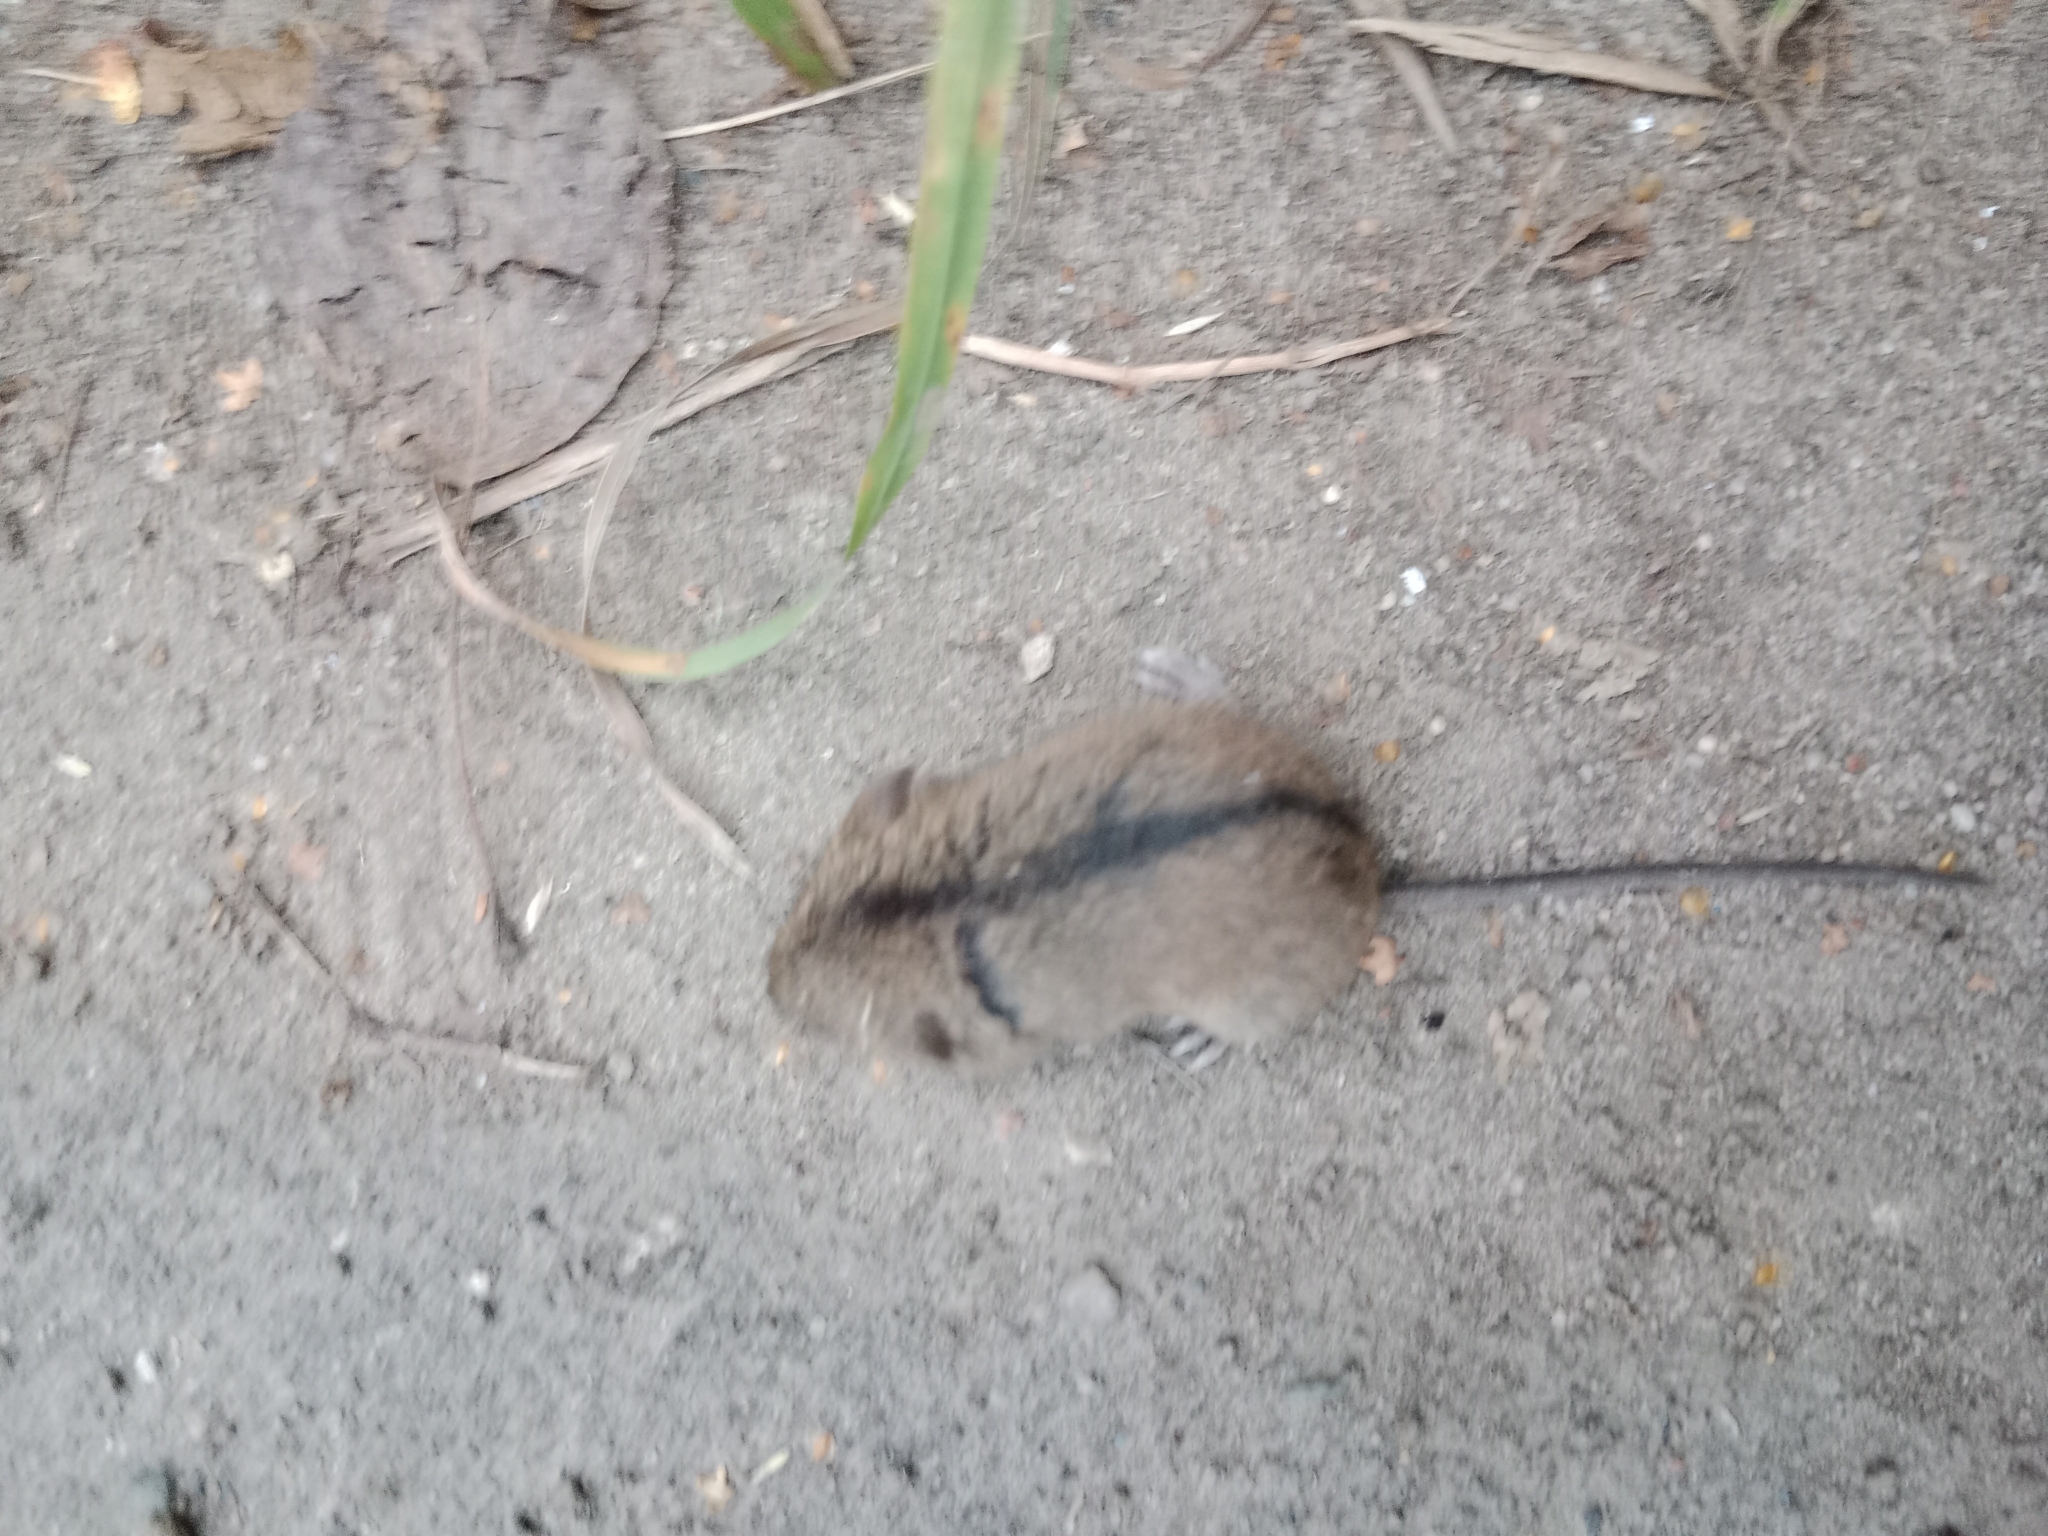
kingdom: Animalia
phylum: Chordata
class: Mammalia
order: Rodentia
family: Muridae
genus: Apodemus
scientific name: Apodemus agrarius
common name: Striped field mouse
